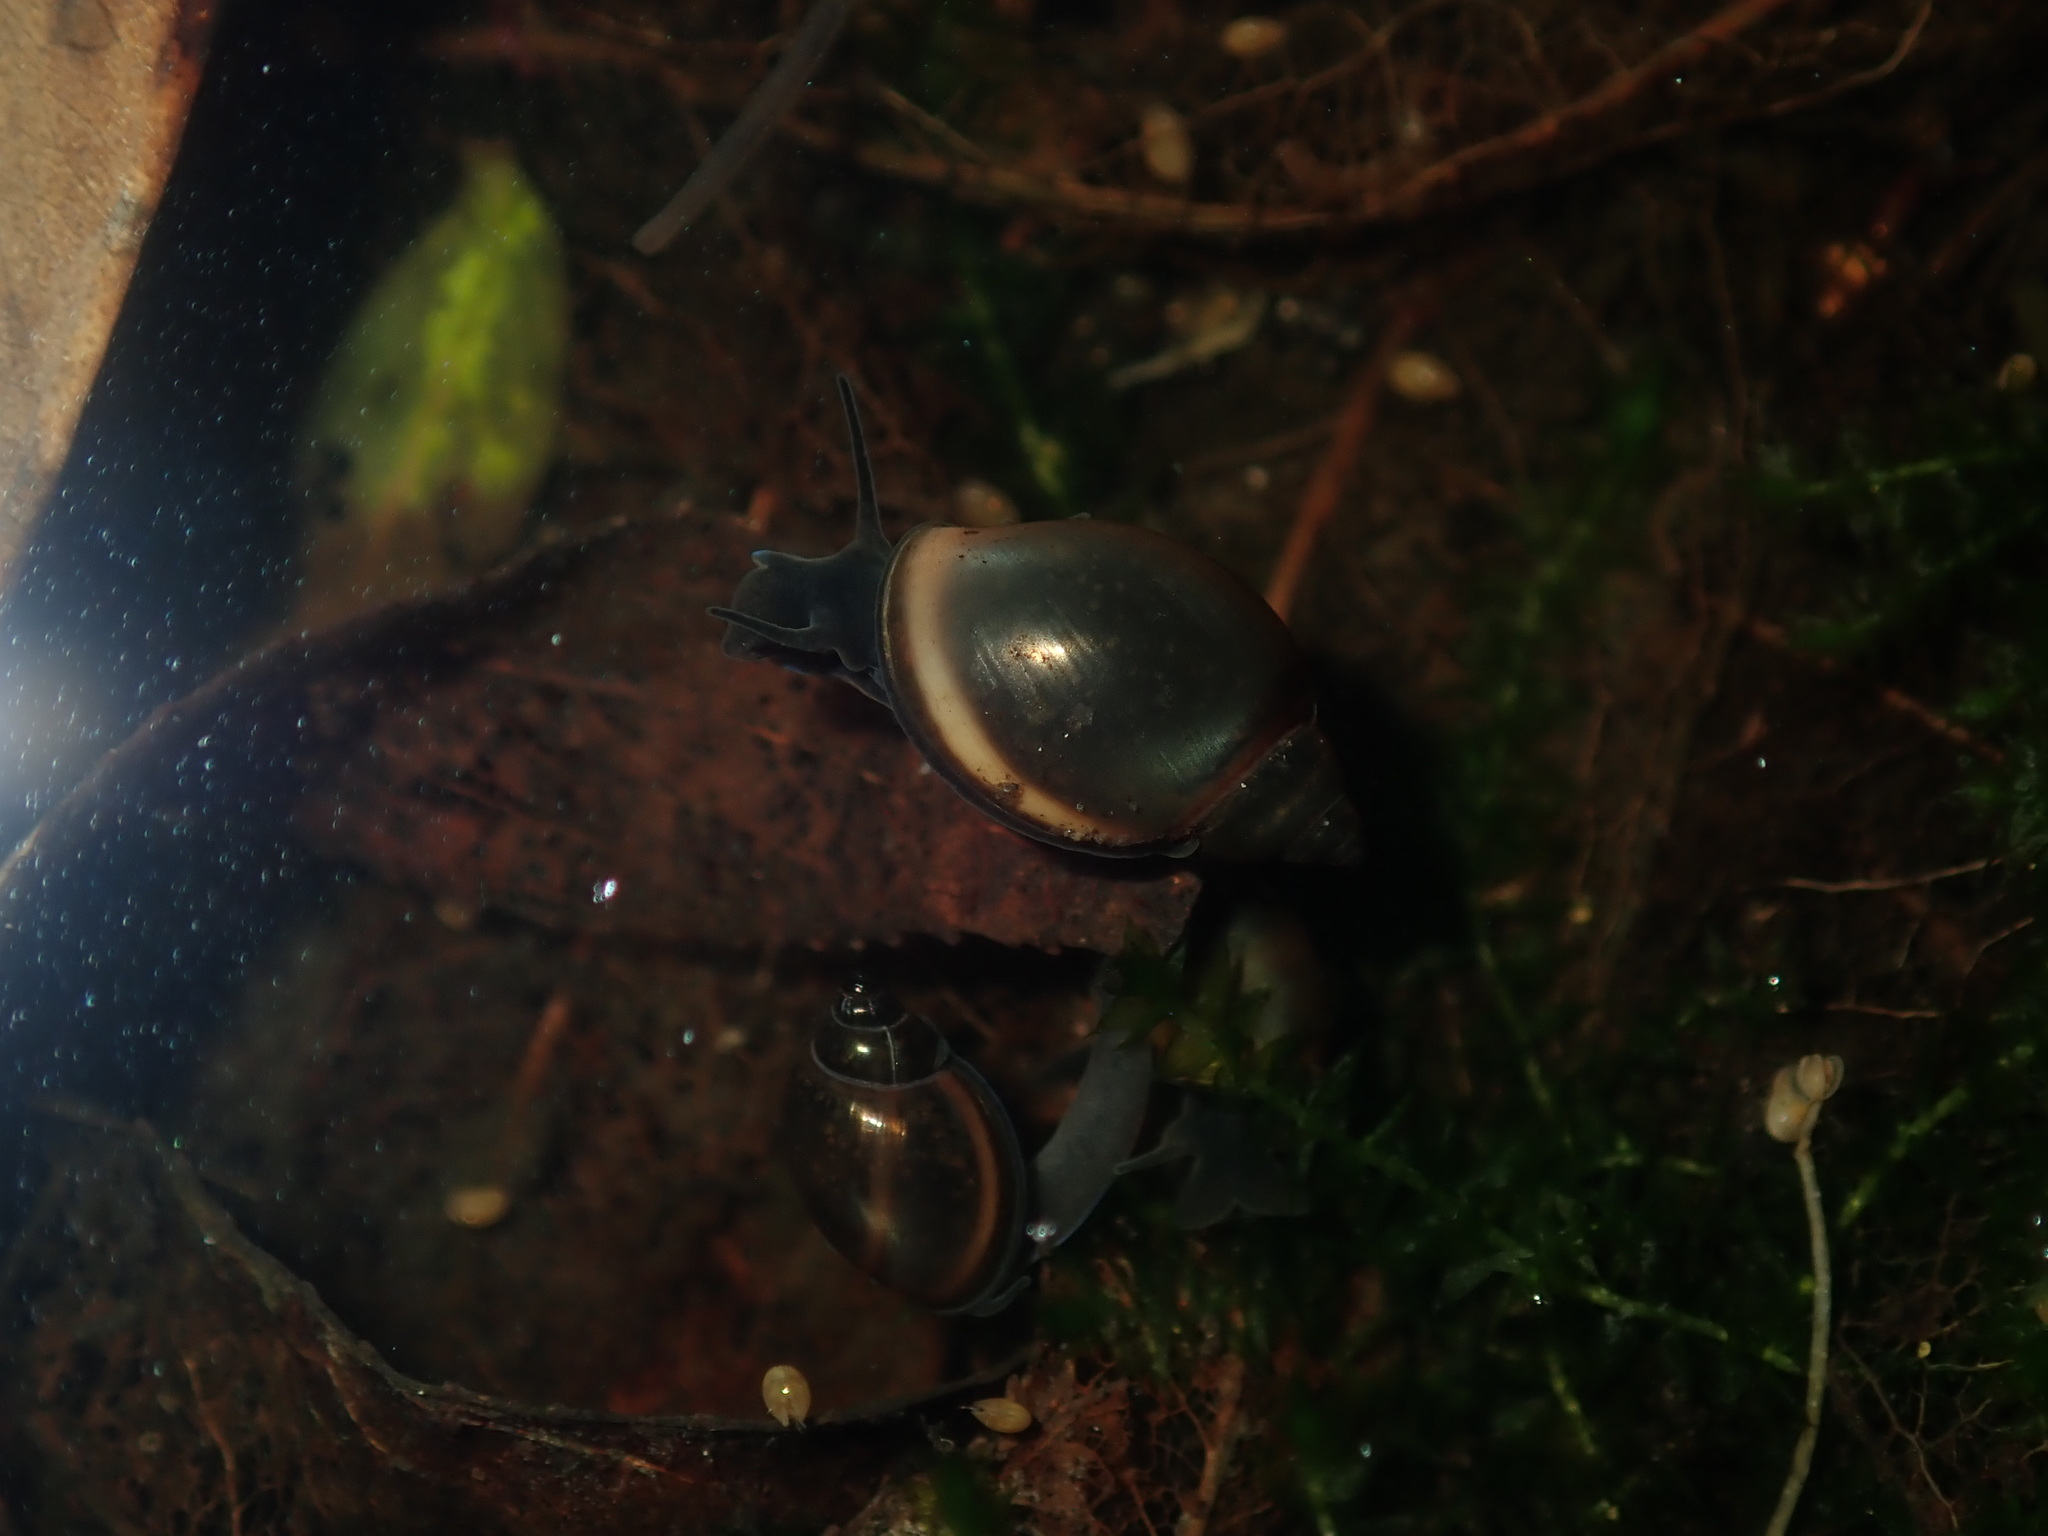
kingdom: Animalia
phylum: Mollusca
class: Gastropoda
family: Physidae
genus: Physella
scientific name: Physella acuta
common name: European physa
